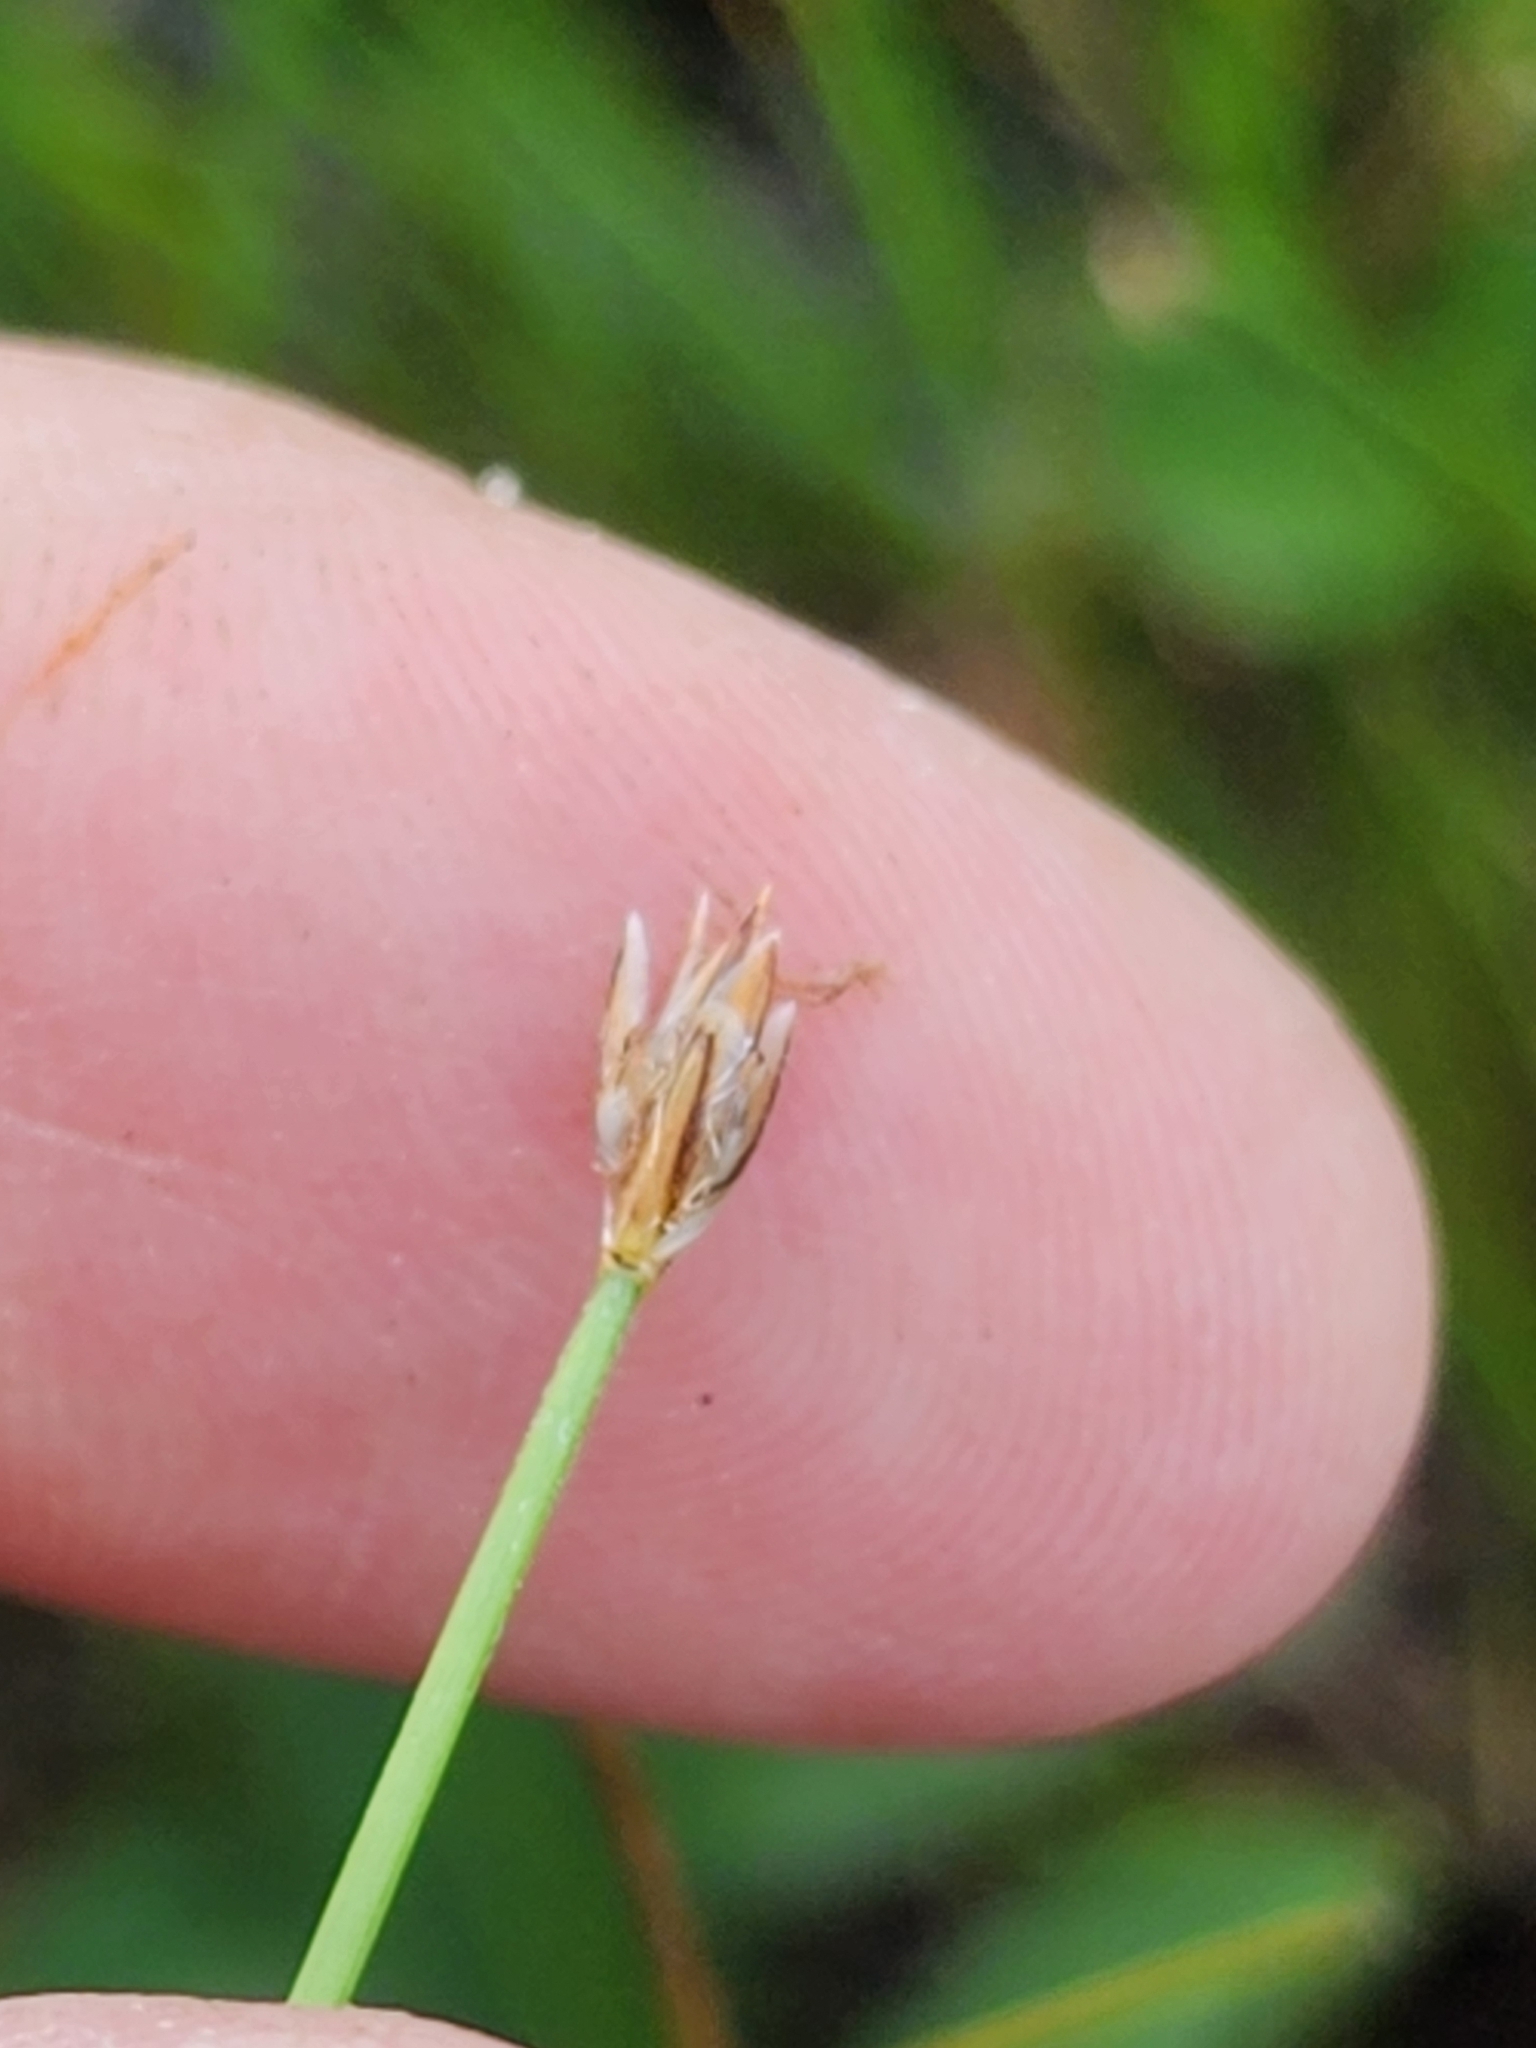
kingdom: Plantae
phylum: Tracheophyta
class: Liliopsida
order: Poales
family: Cyperaceae
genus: Eleocharis
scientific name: Eleocharis quinqueflora
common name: Few-flowered spike-rush
